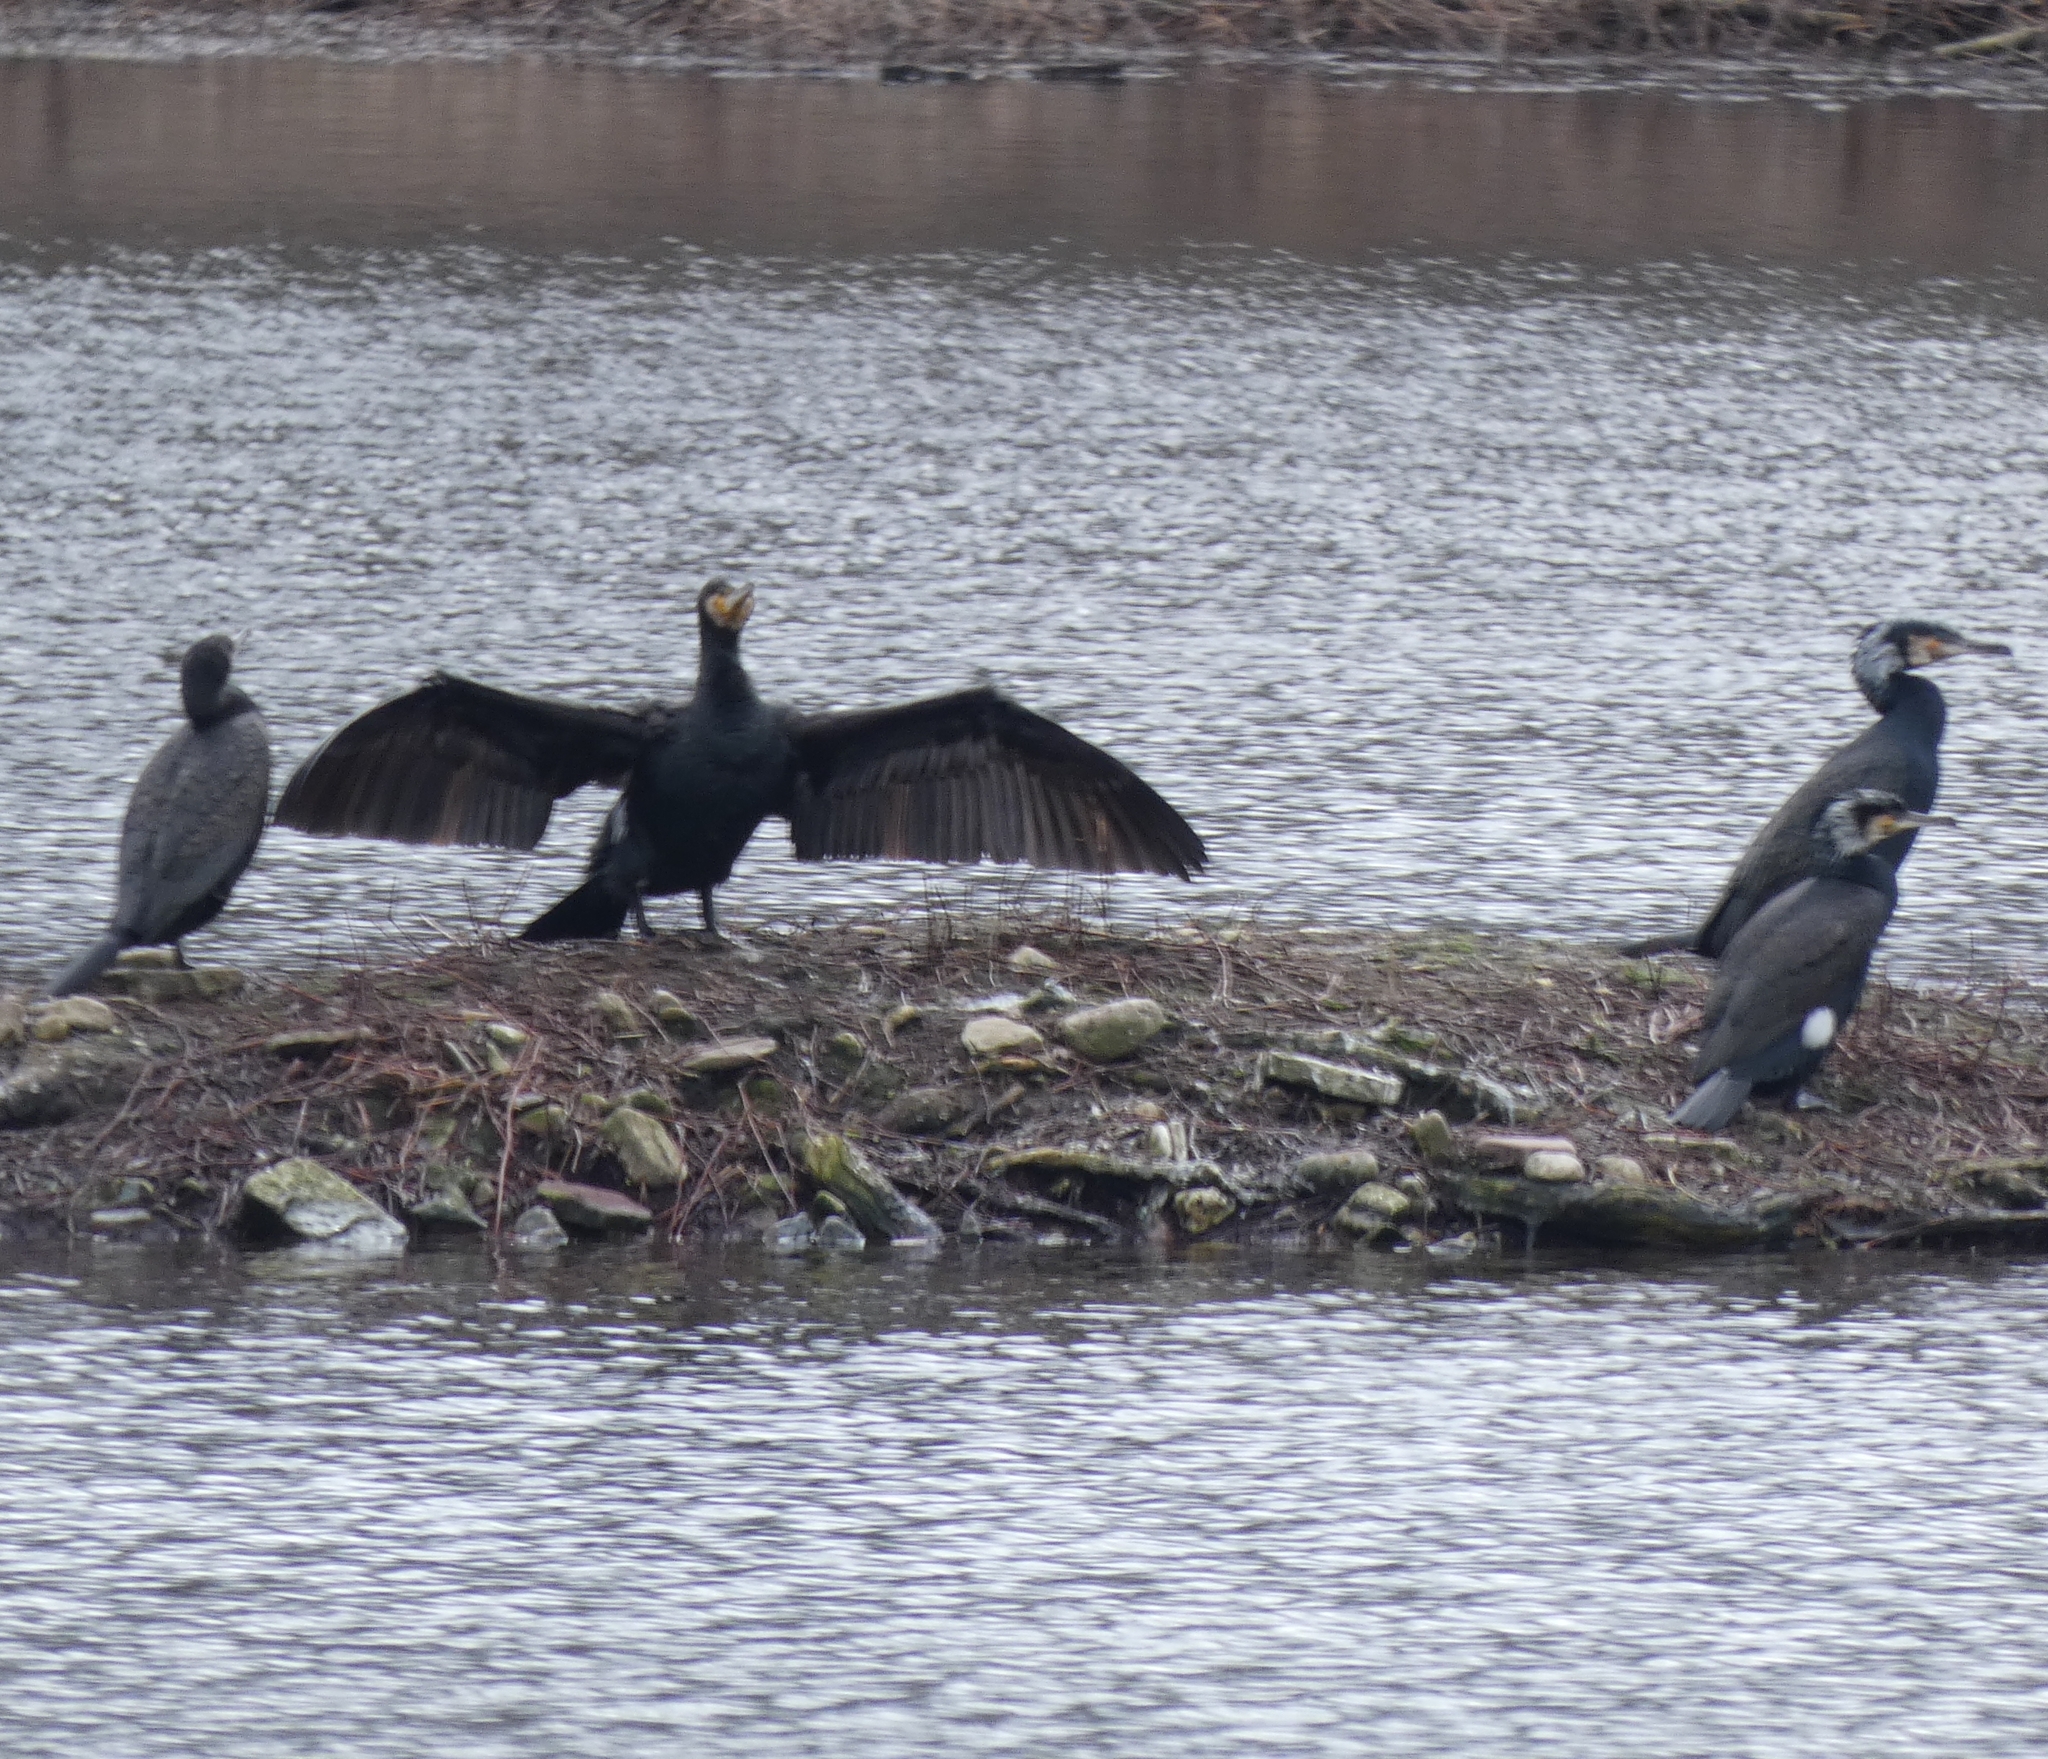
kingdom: Animalia
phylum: Chordata
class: Aves
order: Suliformes
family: Phalacrocoracidae
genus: Phalacrocorax
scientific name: Phalacrocorax carbo
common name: Great cormorant
